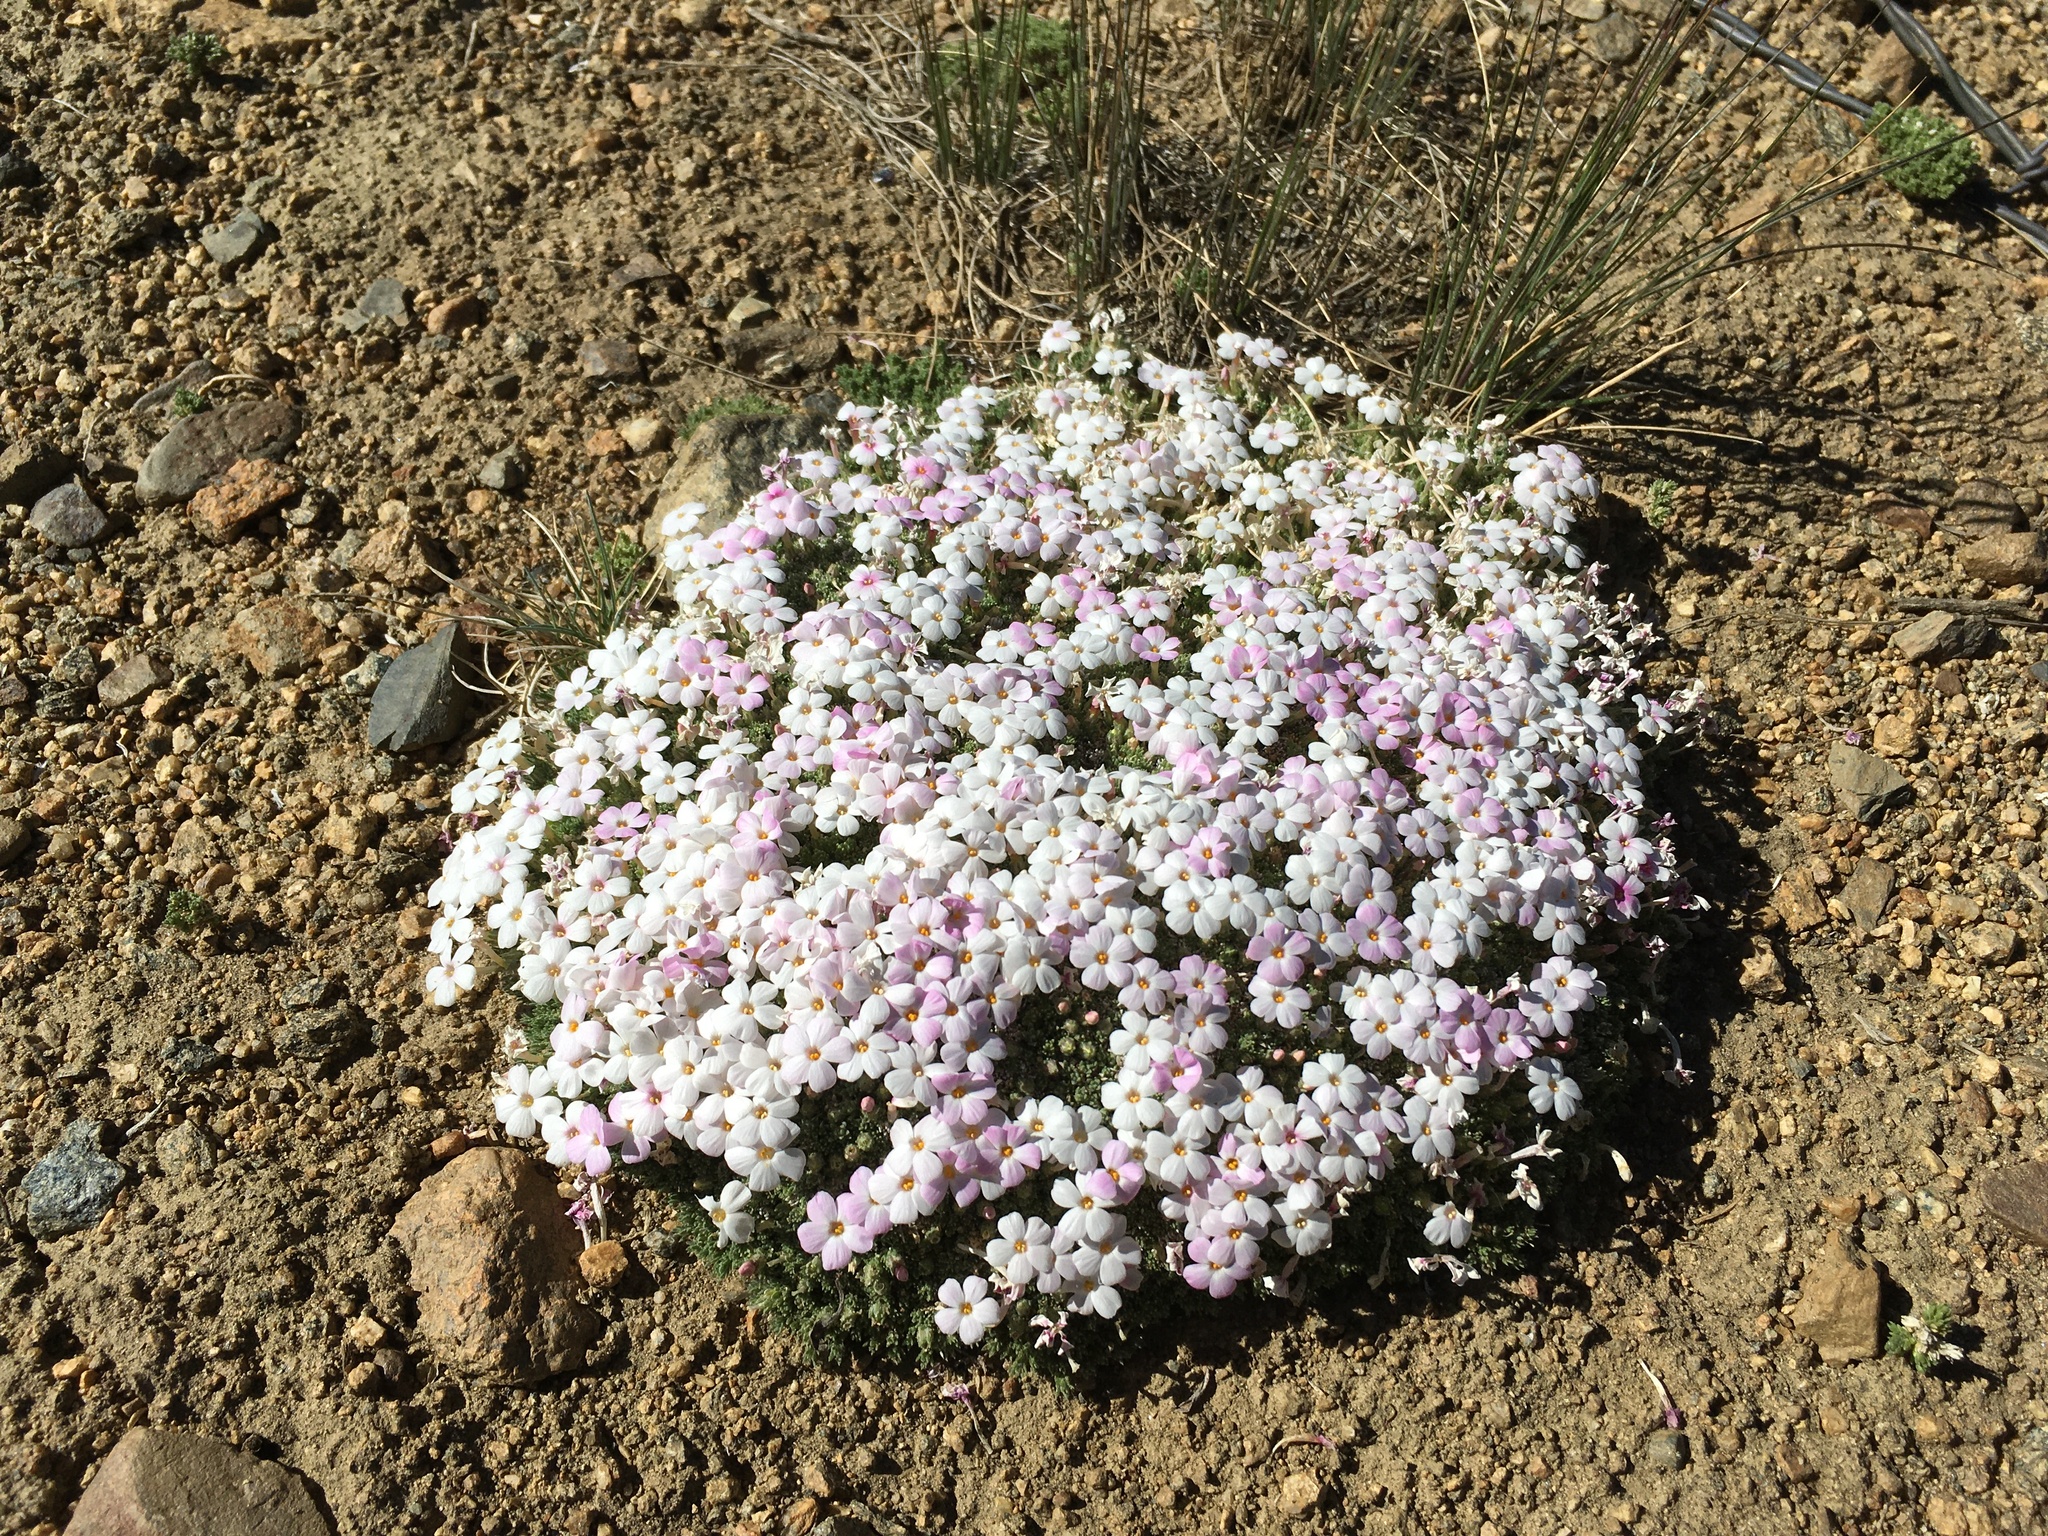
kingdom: Plantae
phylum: Tracheophyta
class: Magnoliopsida
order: Ericales
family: Polemoniaceae
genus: Phlox
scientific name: Phlox condensata
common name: Compact phlox
